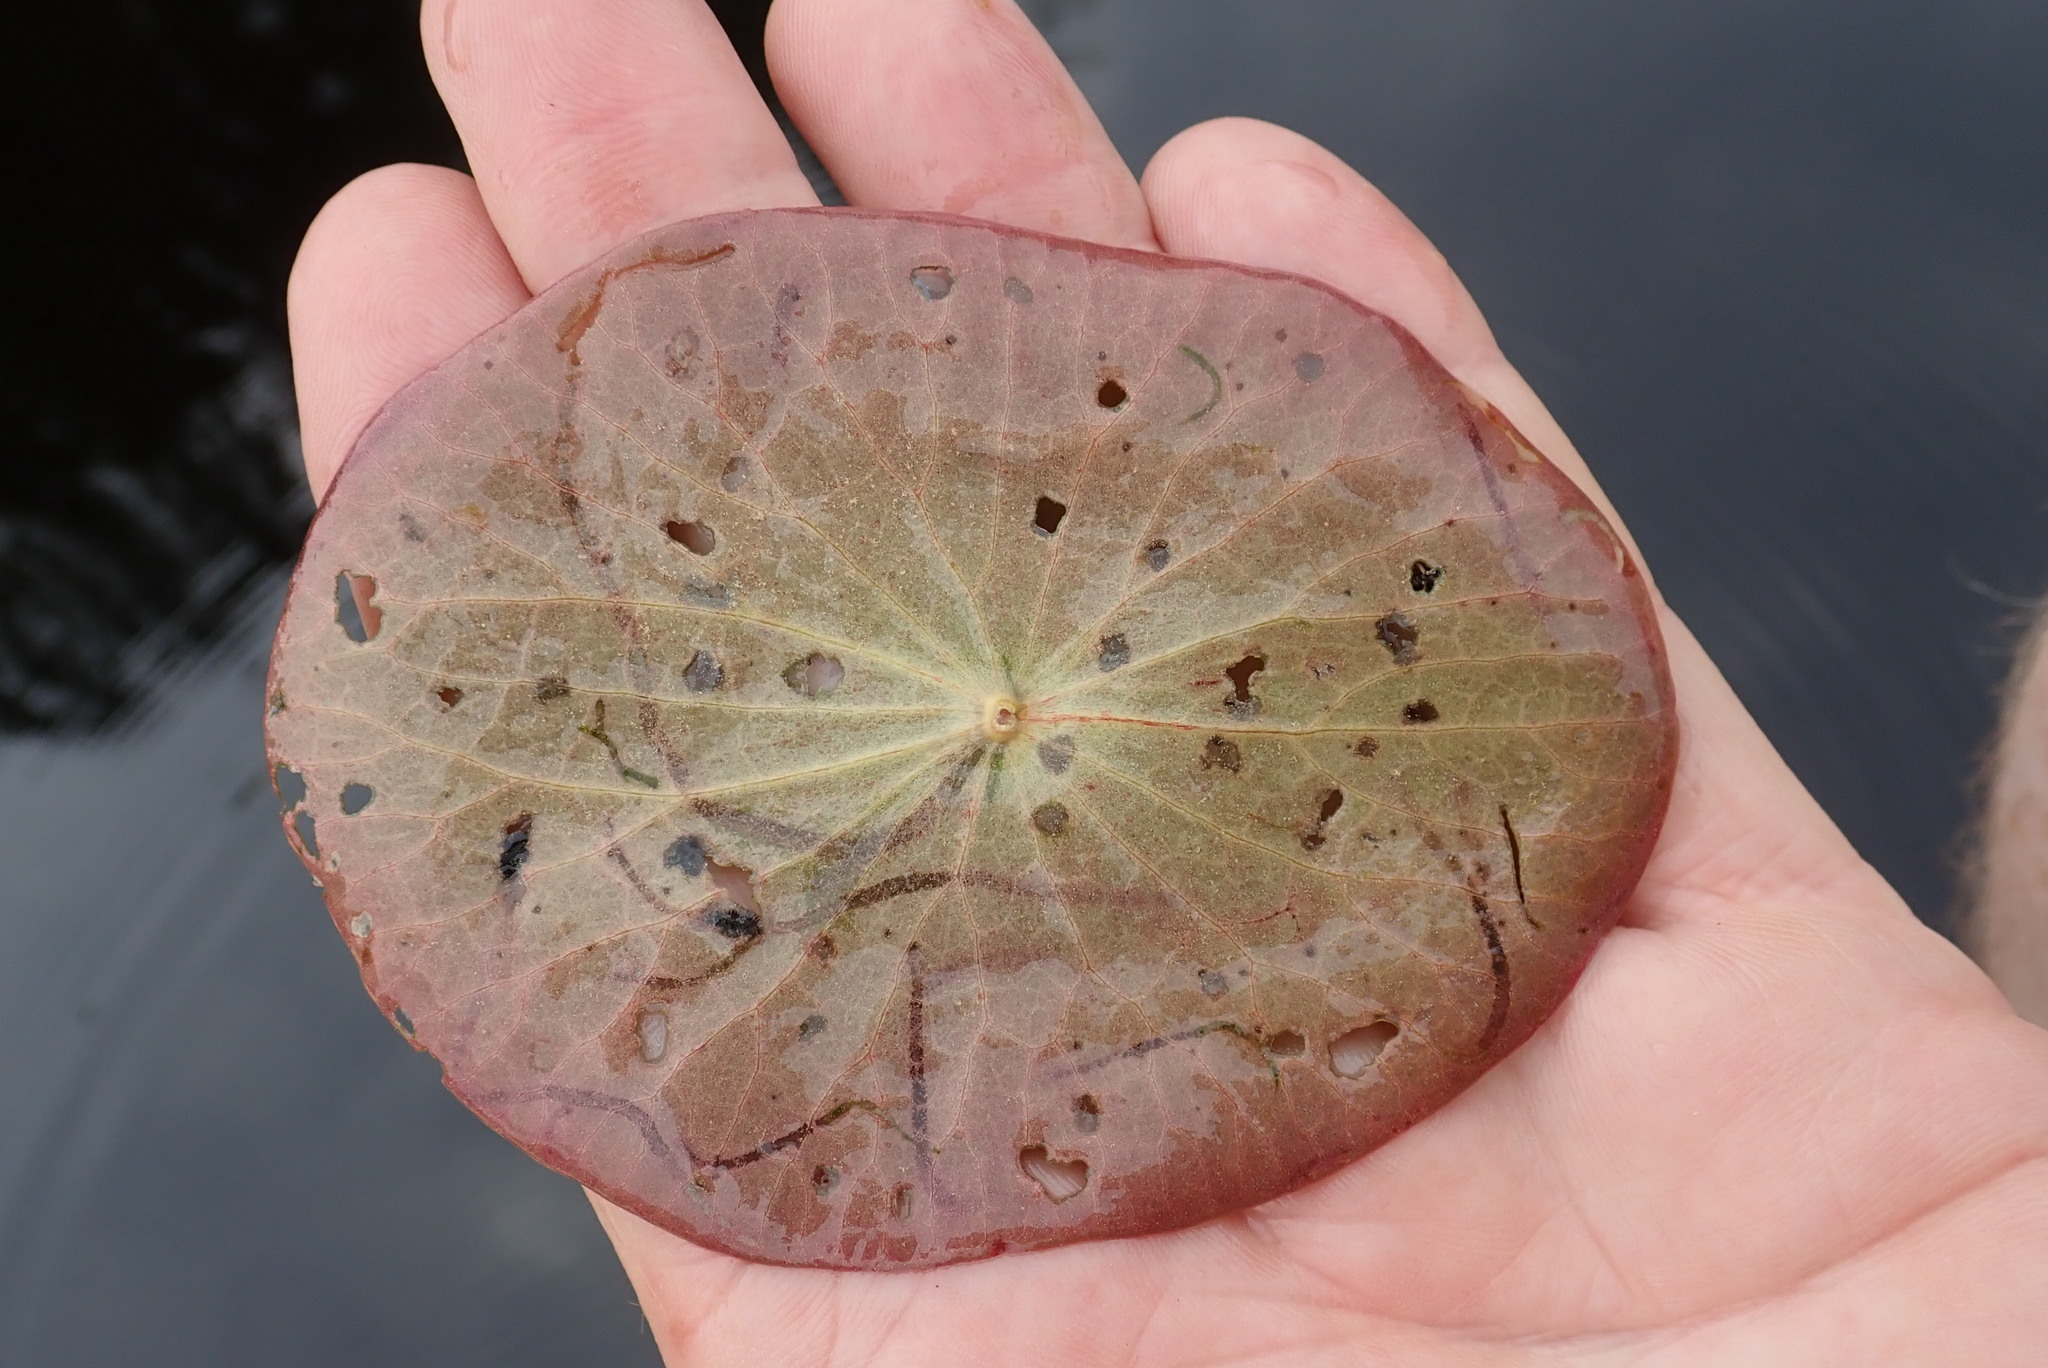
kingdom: Plantae
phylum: Tracheophyta
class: Magnoliopsida
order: Nymphaeales
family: Cabombaceae
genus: Brasenia
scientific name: Brasenia schreberi
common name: Water-shield
